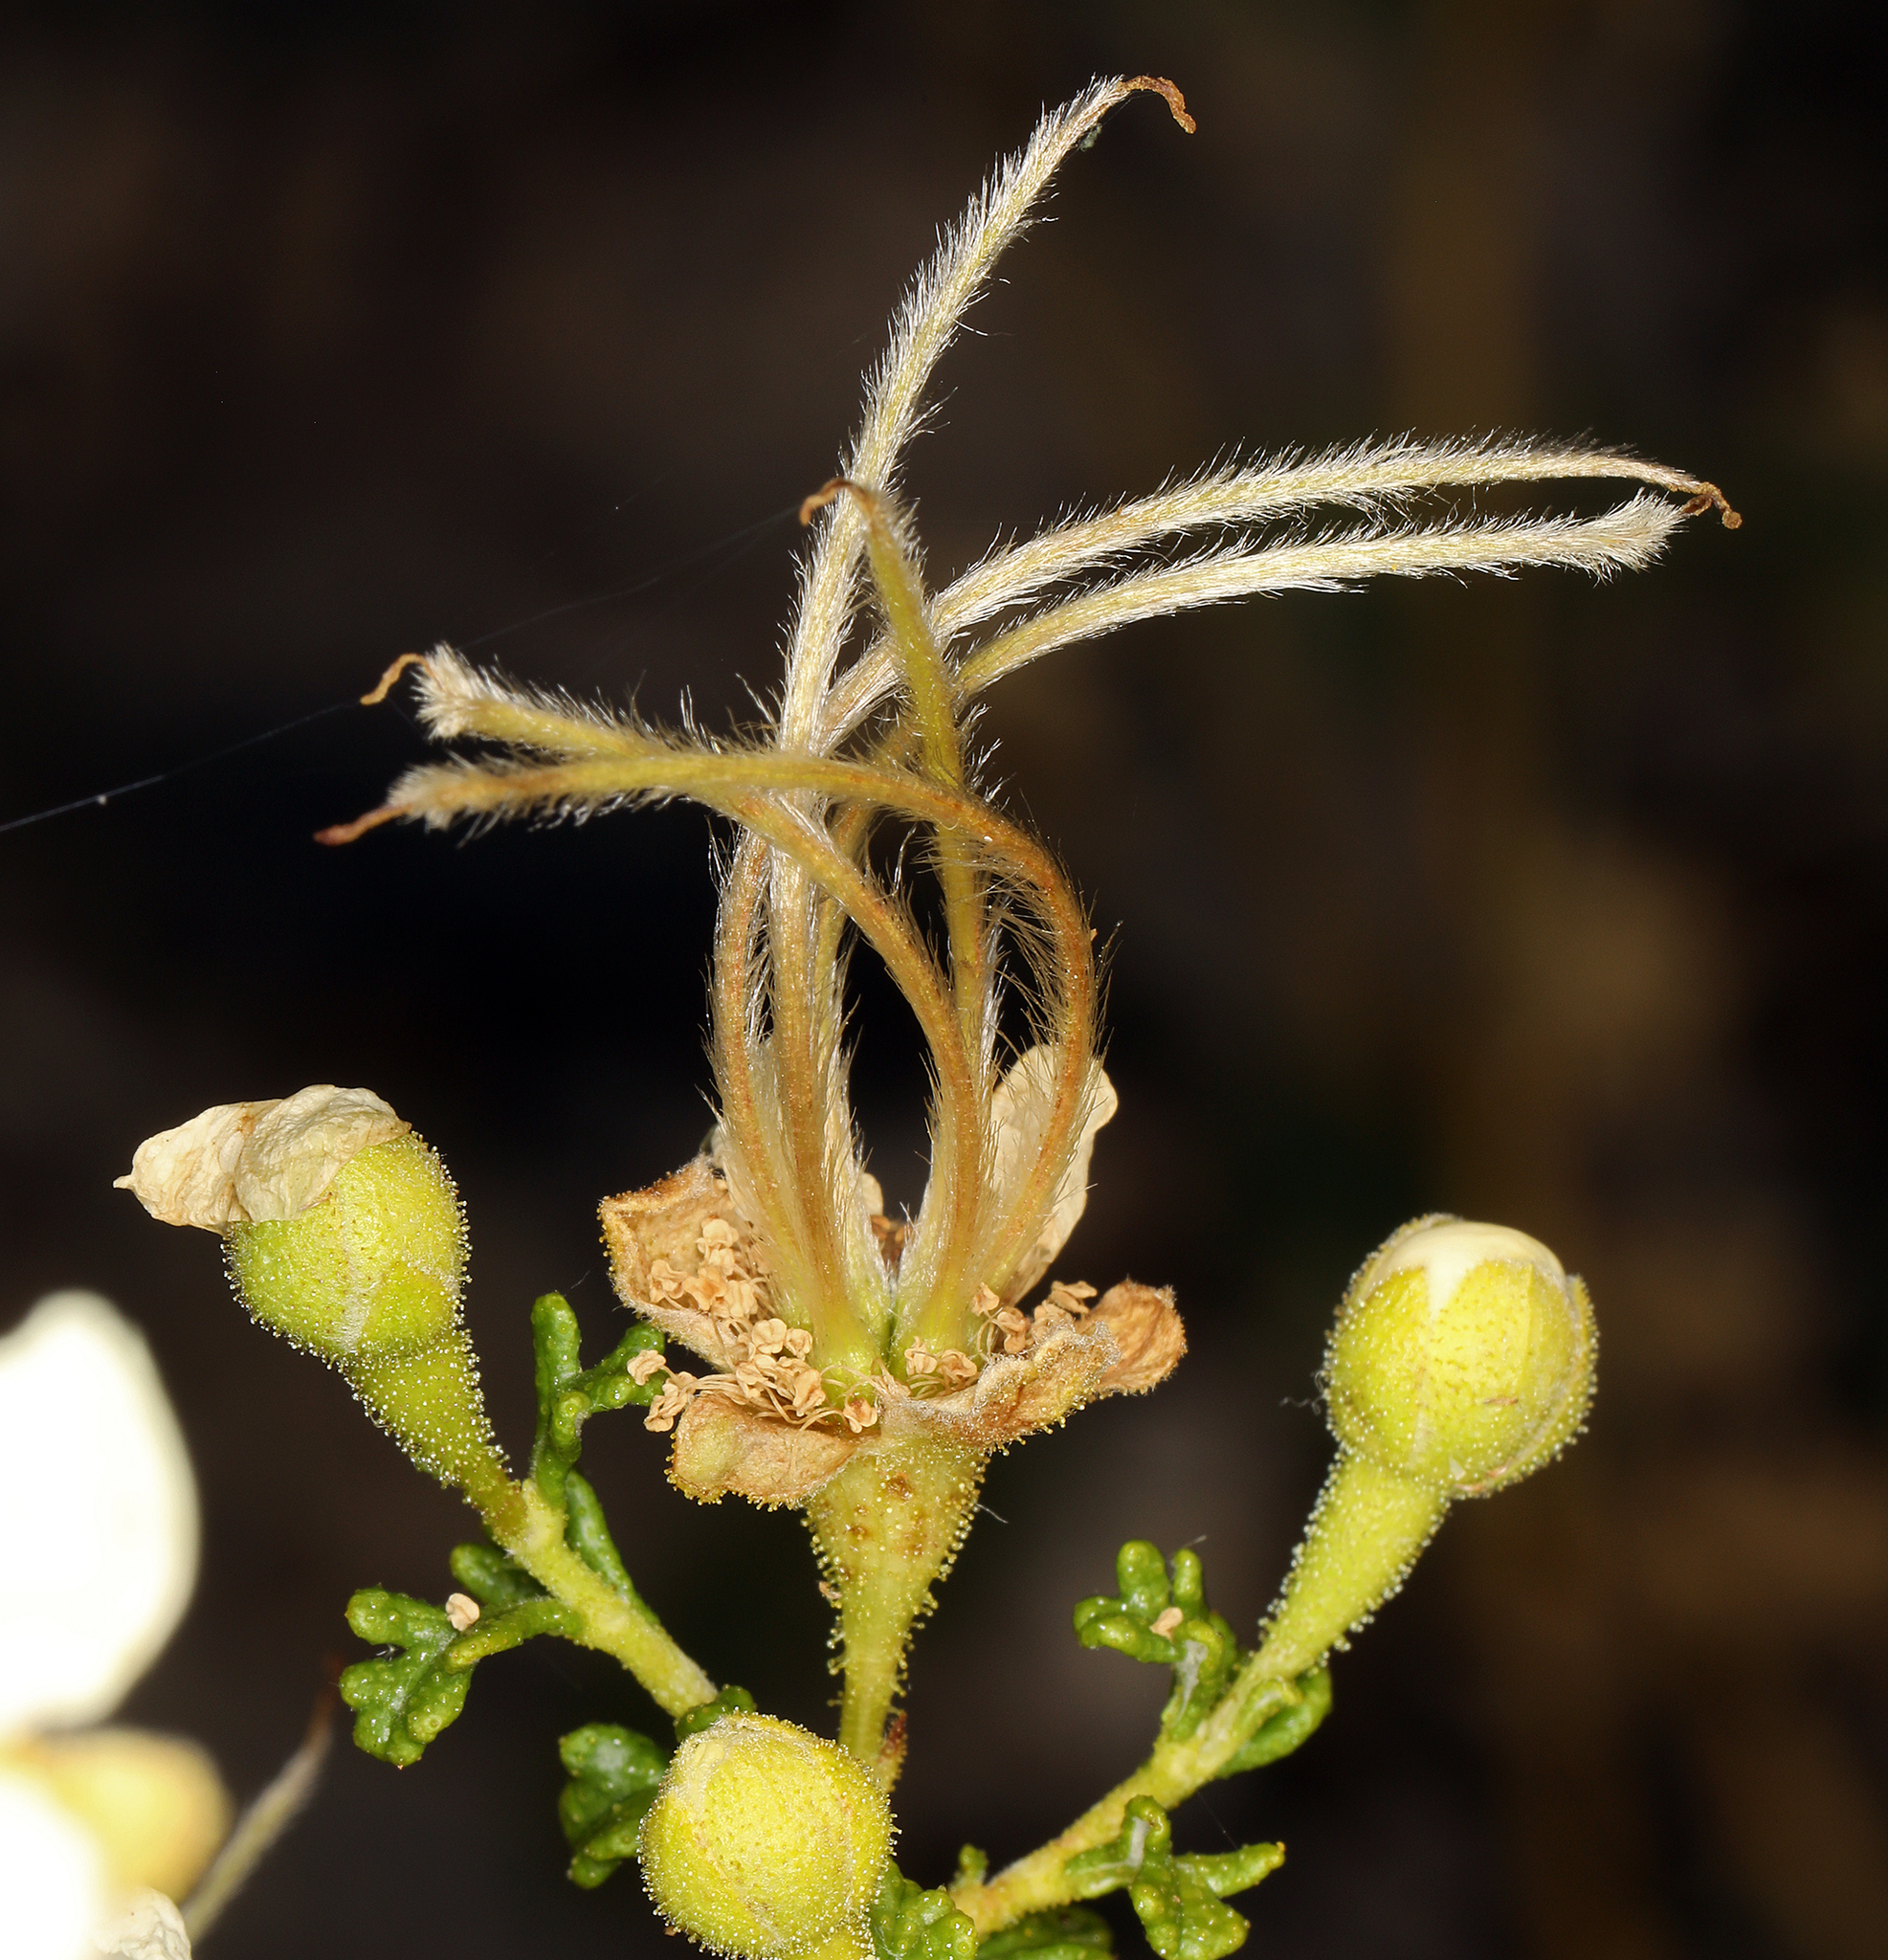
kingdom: Plantae
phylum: Tracheophyta
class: Magnoliopsida
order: Rosales
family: Rosaceae
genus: Purshia
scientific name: Purshia stansburiana
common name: Stansbury's cliffrose
